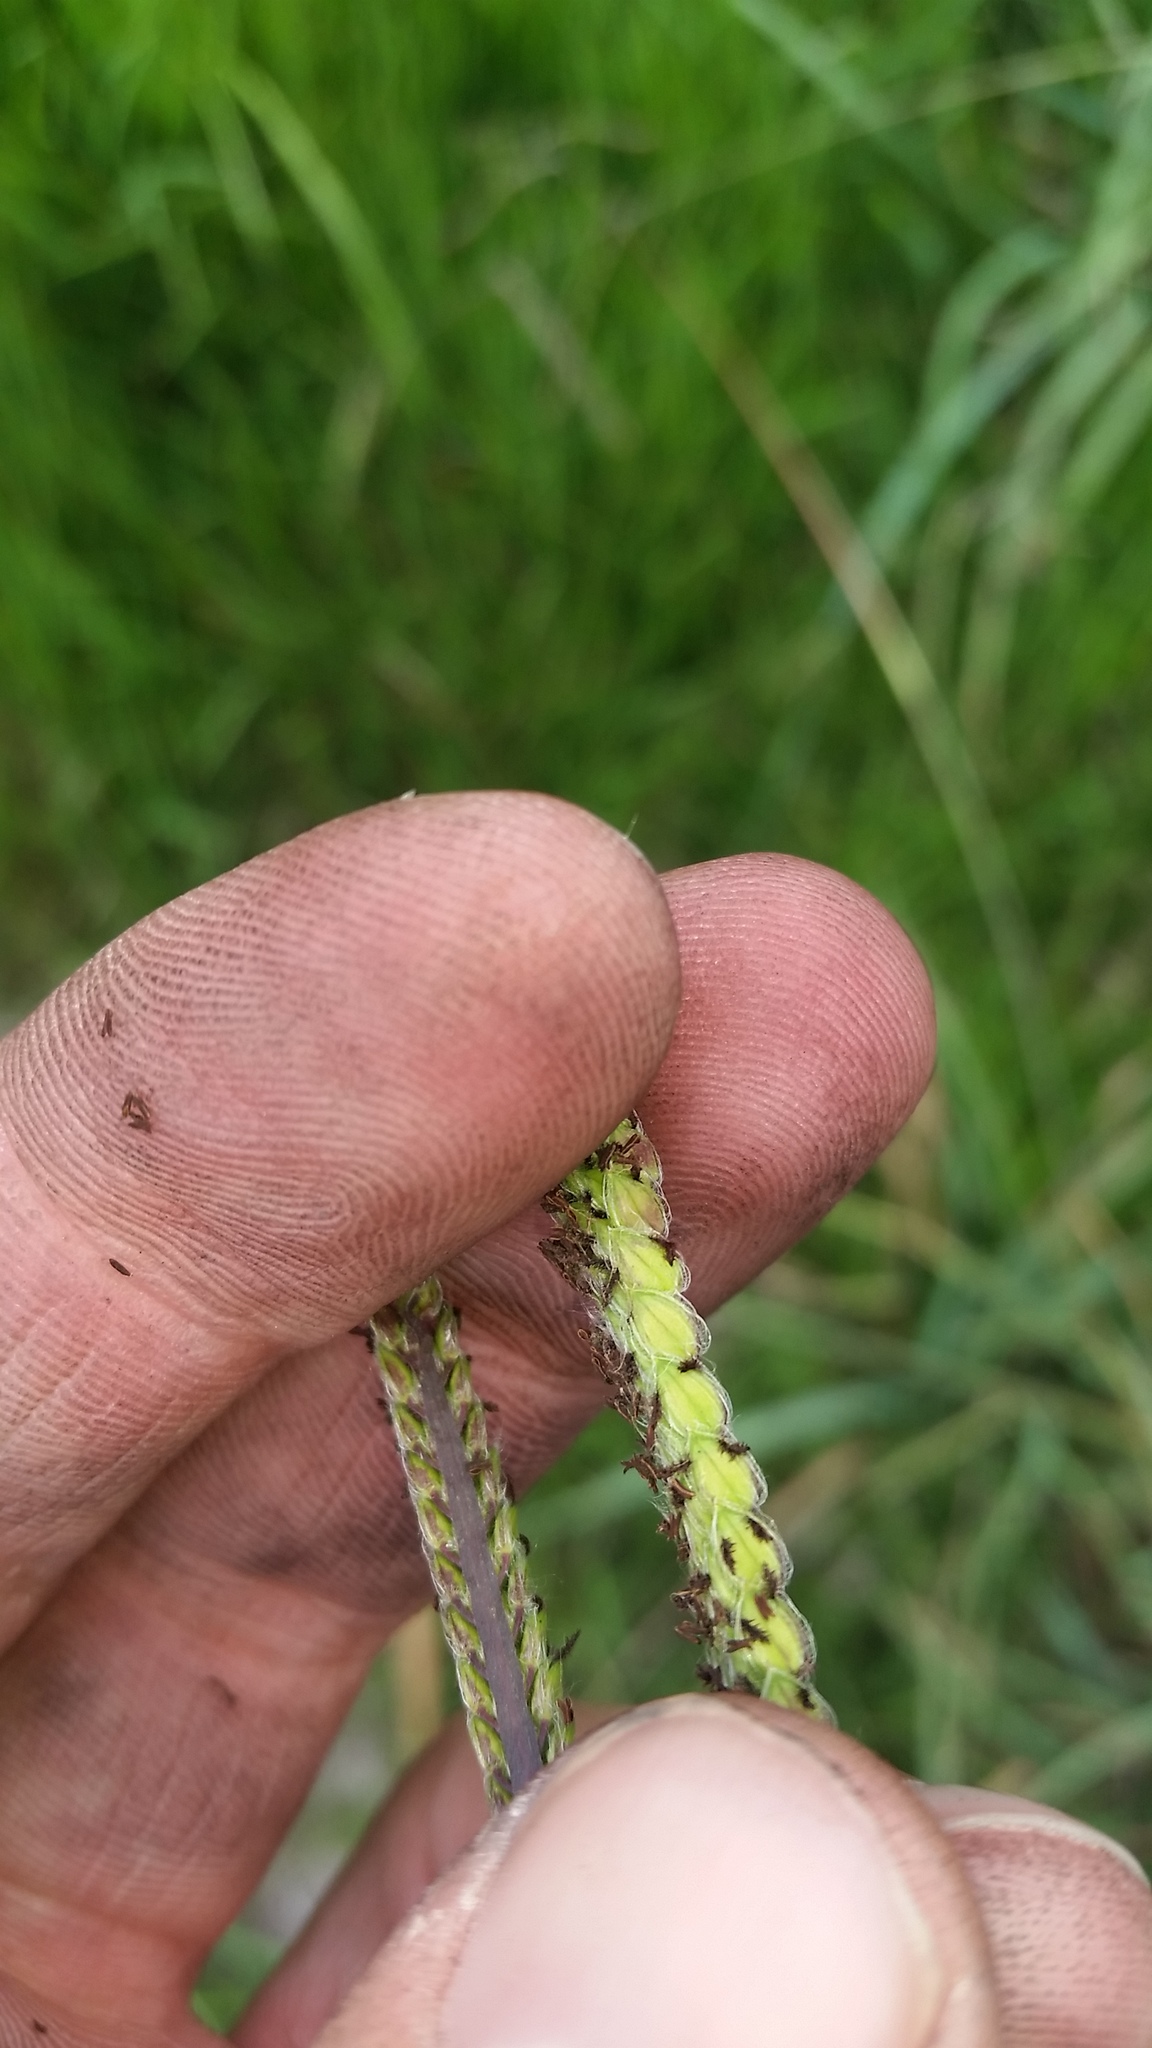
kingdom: Plantae
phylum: Tracheophyta
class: Liliopsida
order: Poales
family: Poaceae
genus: Paspalum
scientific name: Paspalum dilatatum
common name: Dallisgrass
